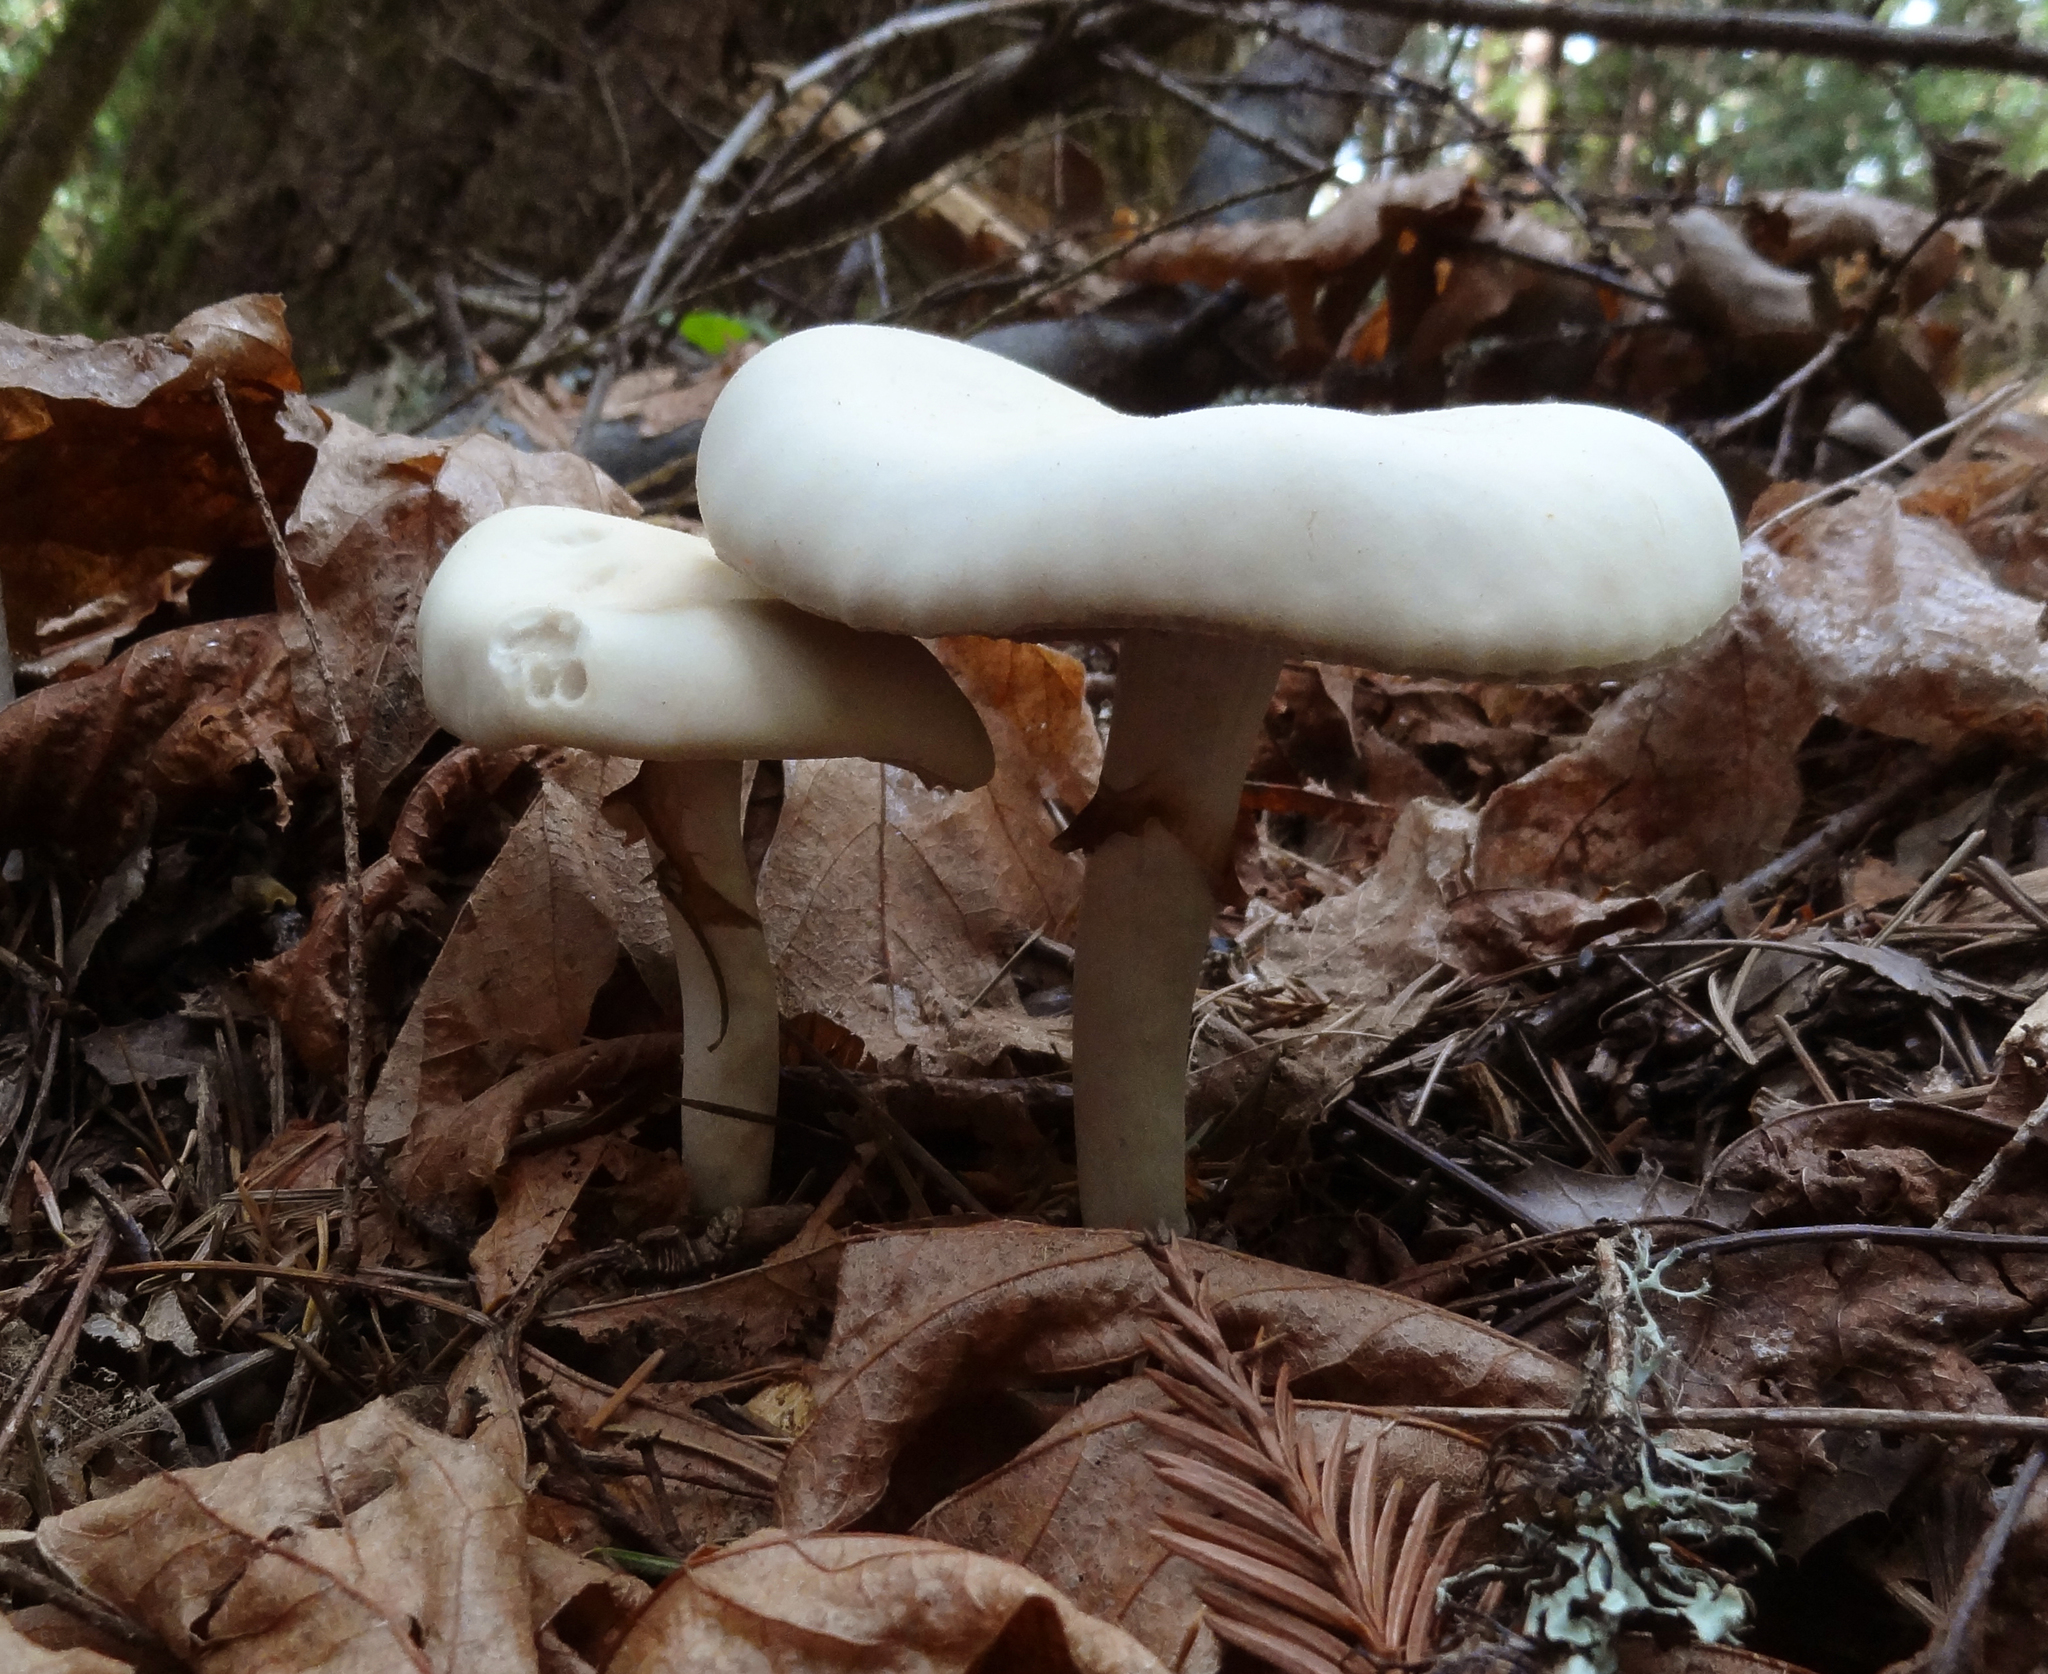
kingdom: Fungi
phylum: Basidiomycota
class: Agaricomycetes
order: Agaricales
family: Strophariaceae
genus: Agrocybe
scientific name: Agrocybe praecox
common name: Spring fieldcap
